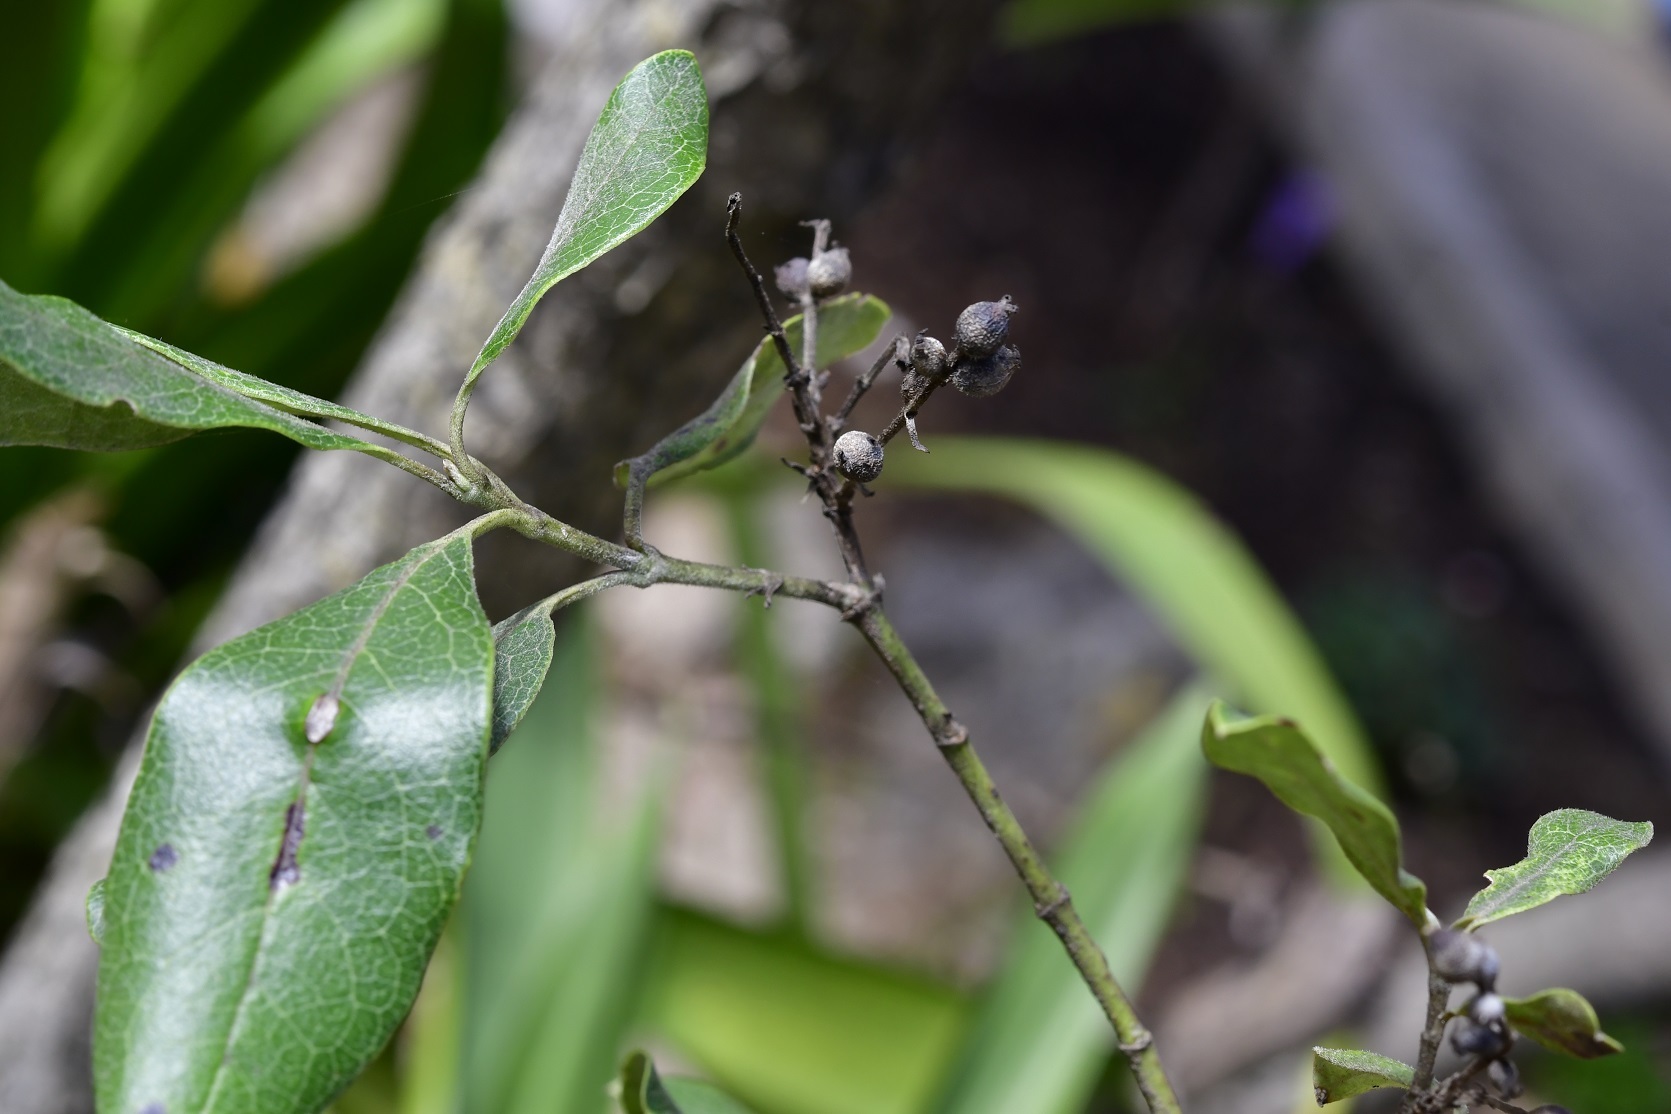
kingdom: Plantae
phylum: Tracheophyta
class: Magnoliopsida
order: Garryales
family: Garryaceae
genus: Garrya
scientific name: Garrya laurifolia
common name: Cuachichic
